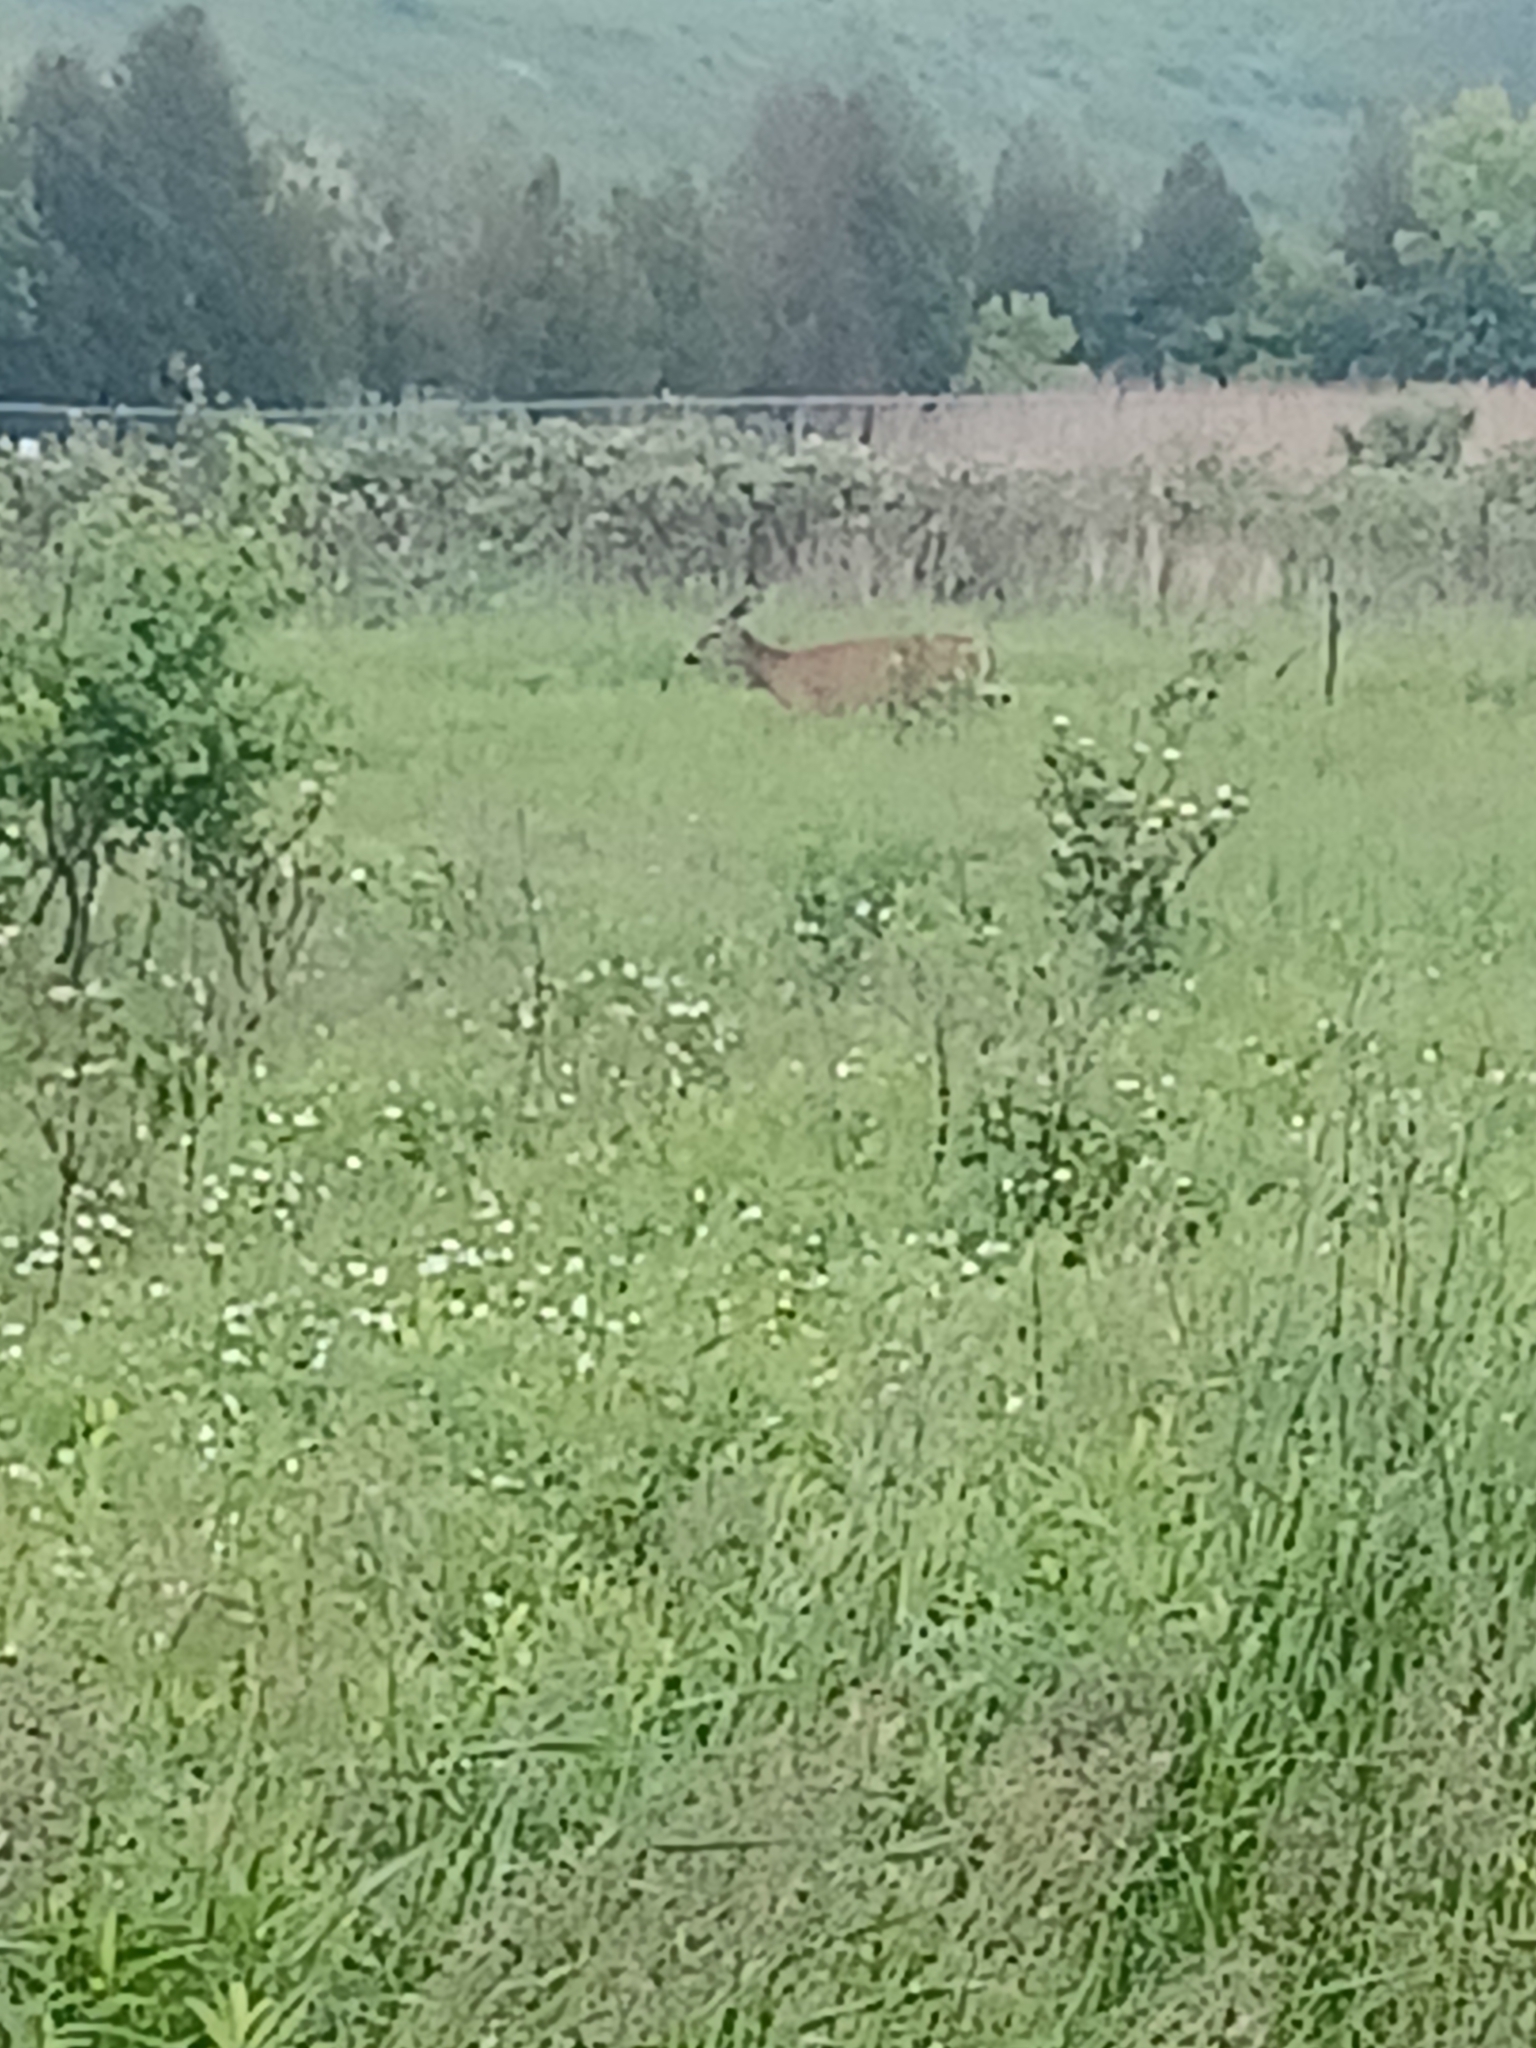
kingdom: Animalia
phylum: Chordata
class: Mammalia
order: Artiodactyla
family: Cervidae
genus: Odocoileus
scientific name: Odocoileus virginianus
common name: White-tailed deer
